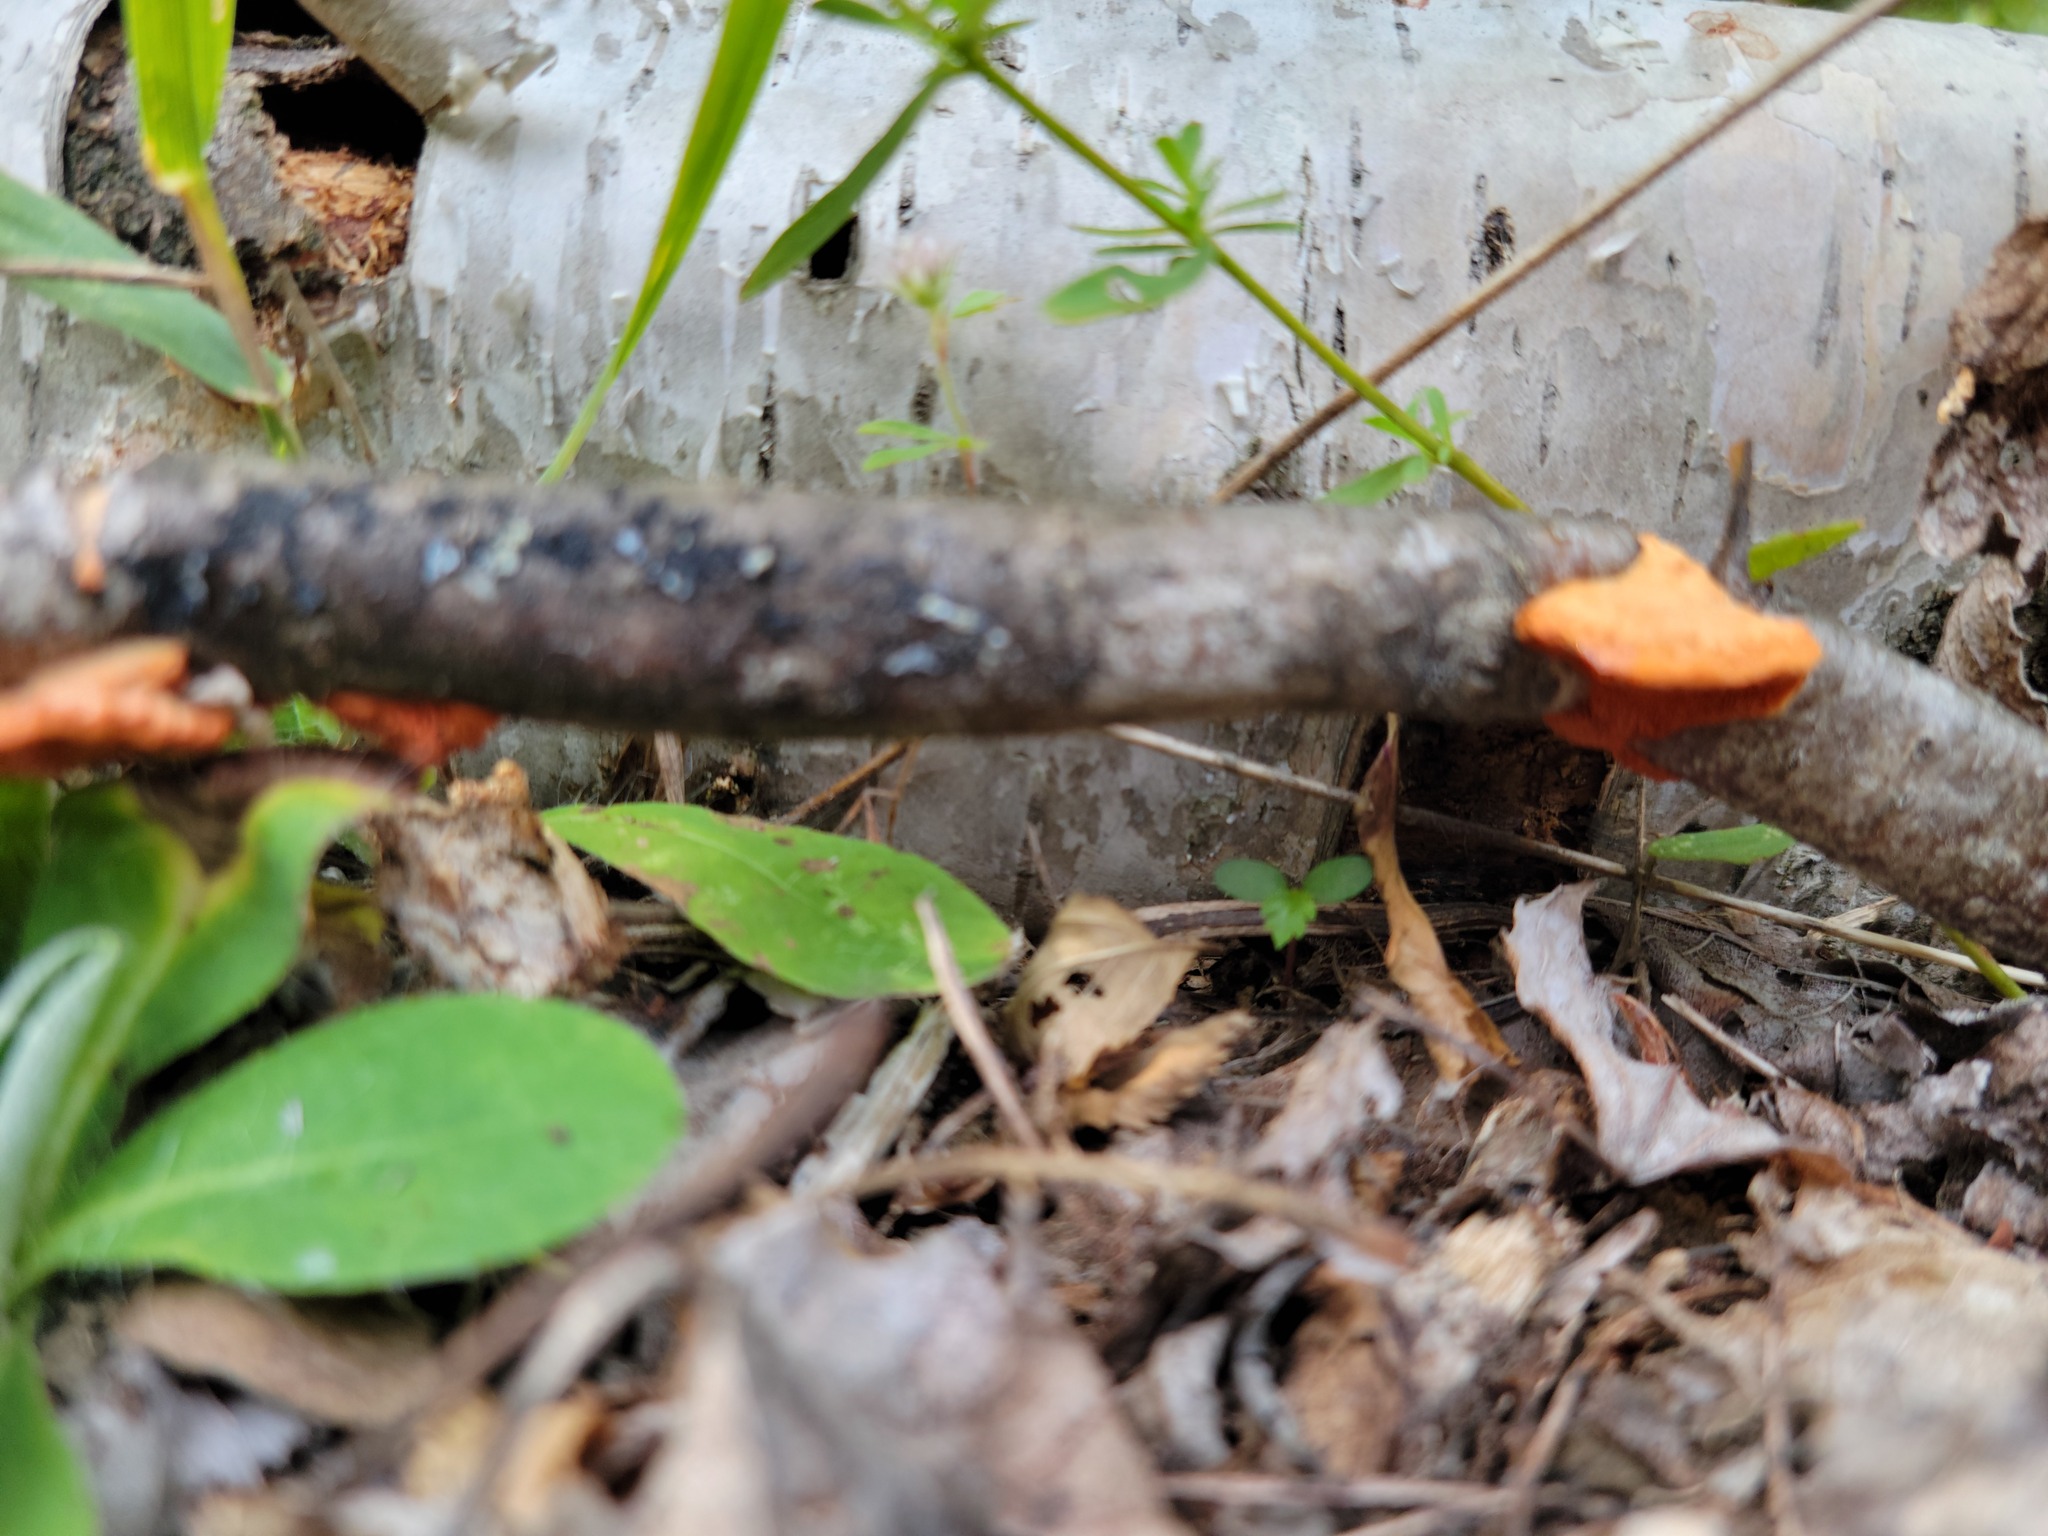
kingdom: Fungi
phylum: Basidiomycota
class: Agaricomycetes
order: Polyporales
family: Polyporaceae
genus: Trametes
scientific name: Trametes cinnabarina
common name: Northern cinnabar polypore
